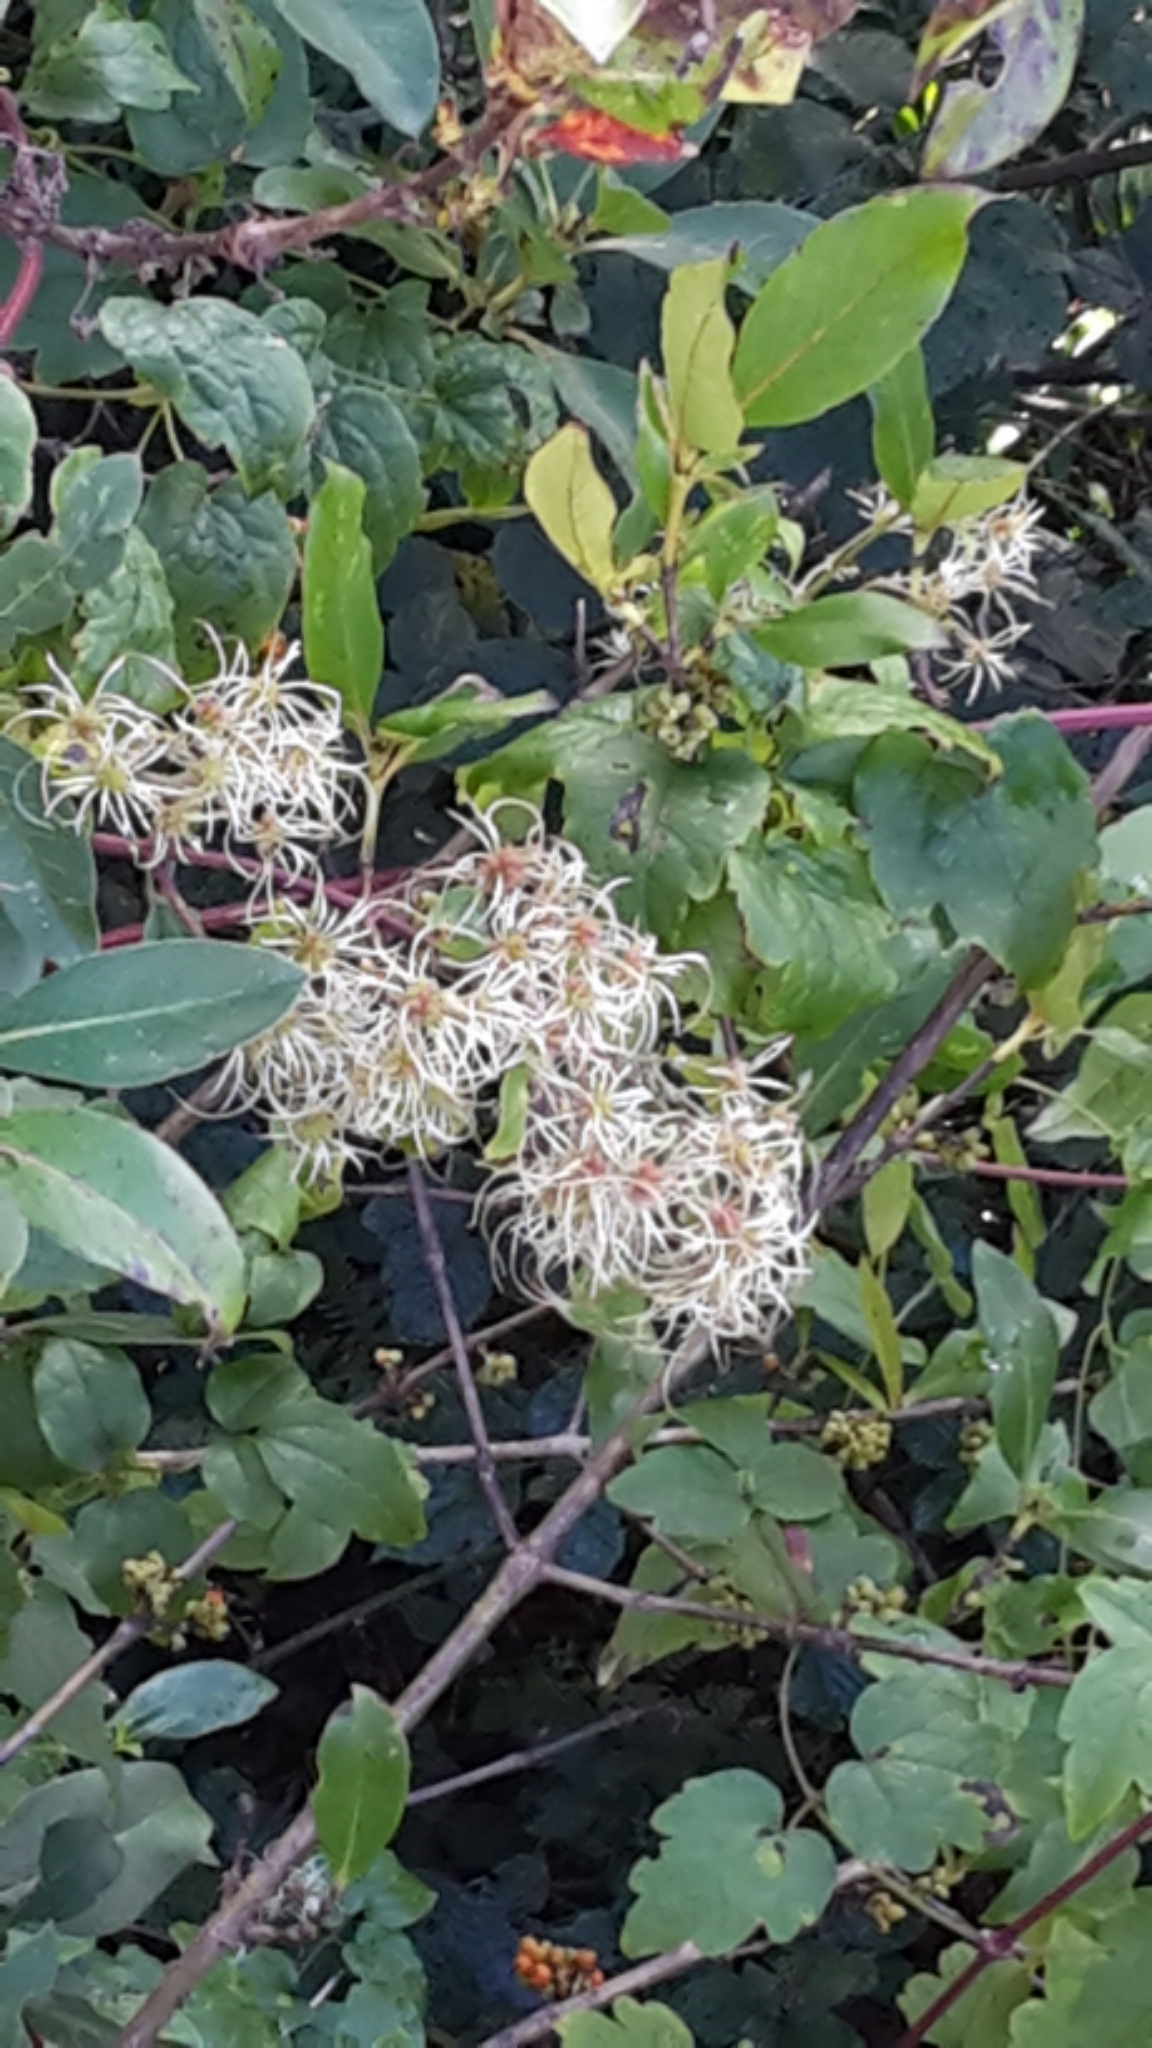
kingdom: Plantae
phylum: Tracheophyta
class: Magnoliopsida
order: Ranunculales
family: Ranunculaceae
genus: Clematis
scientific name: Clematis vitalba
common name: Evergreen clematis
